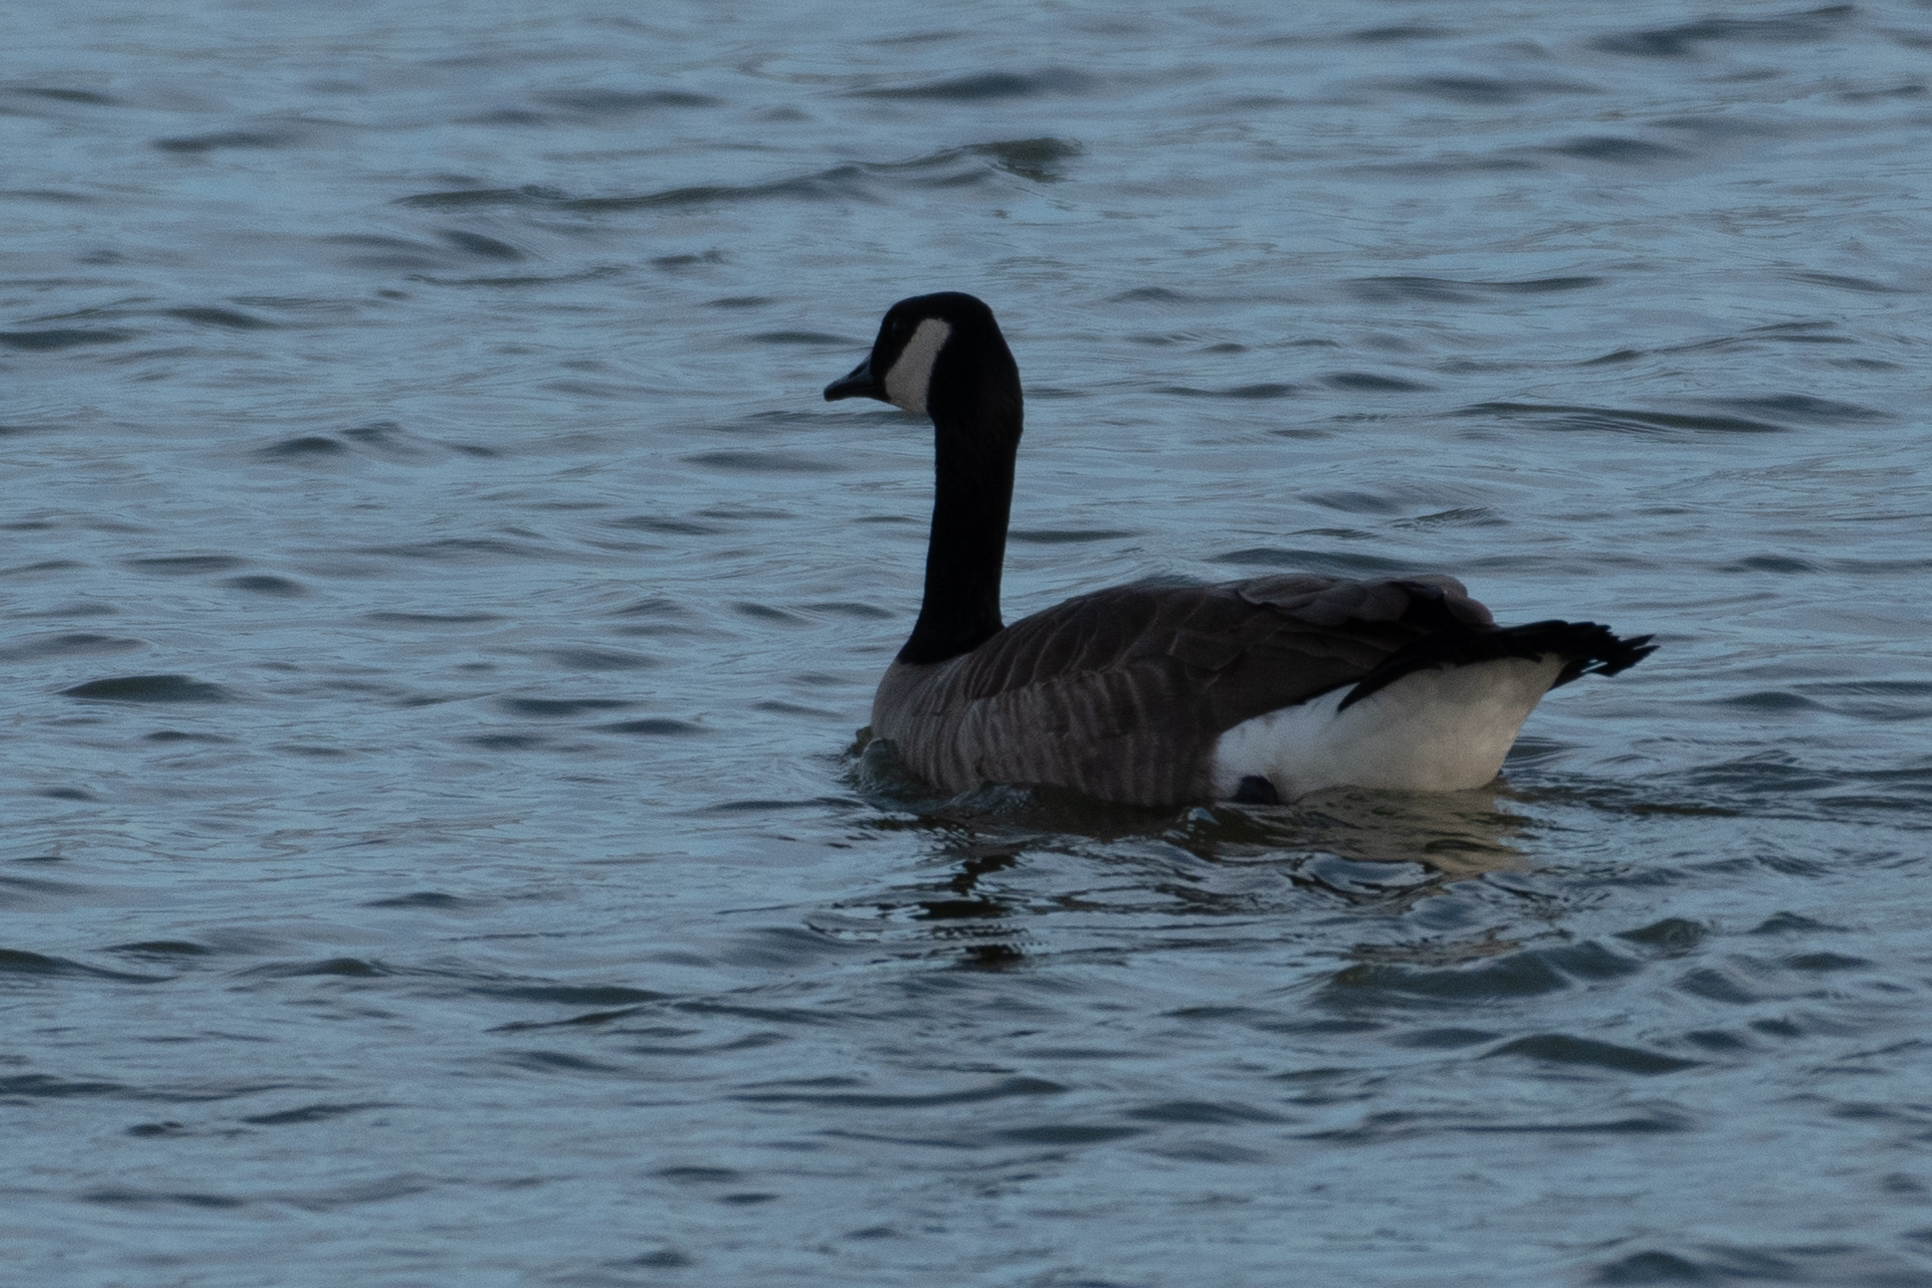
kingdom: Animalia
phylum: Chordata
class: Aves
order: Anseriformes
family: Anatidae
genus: Branta
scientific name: Branta canadensis
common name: Canada goose
